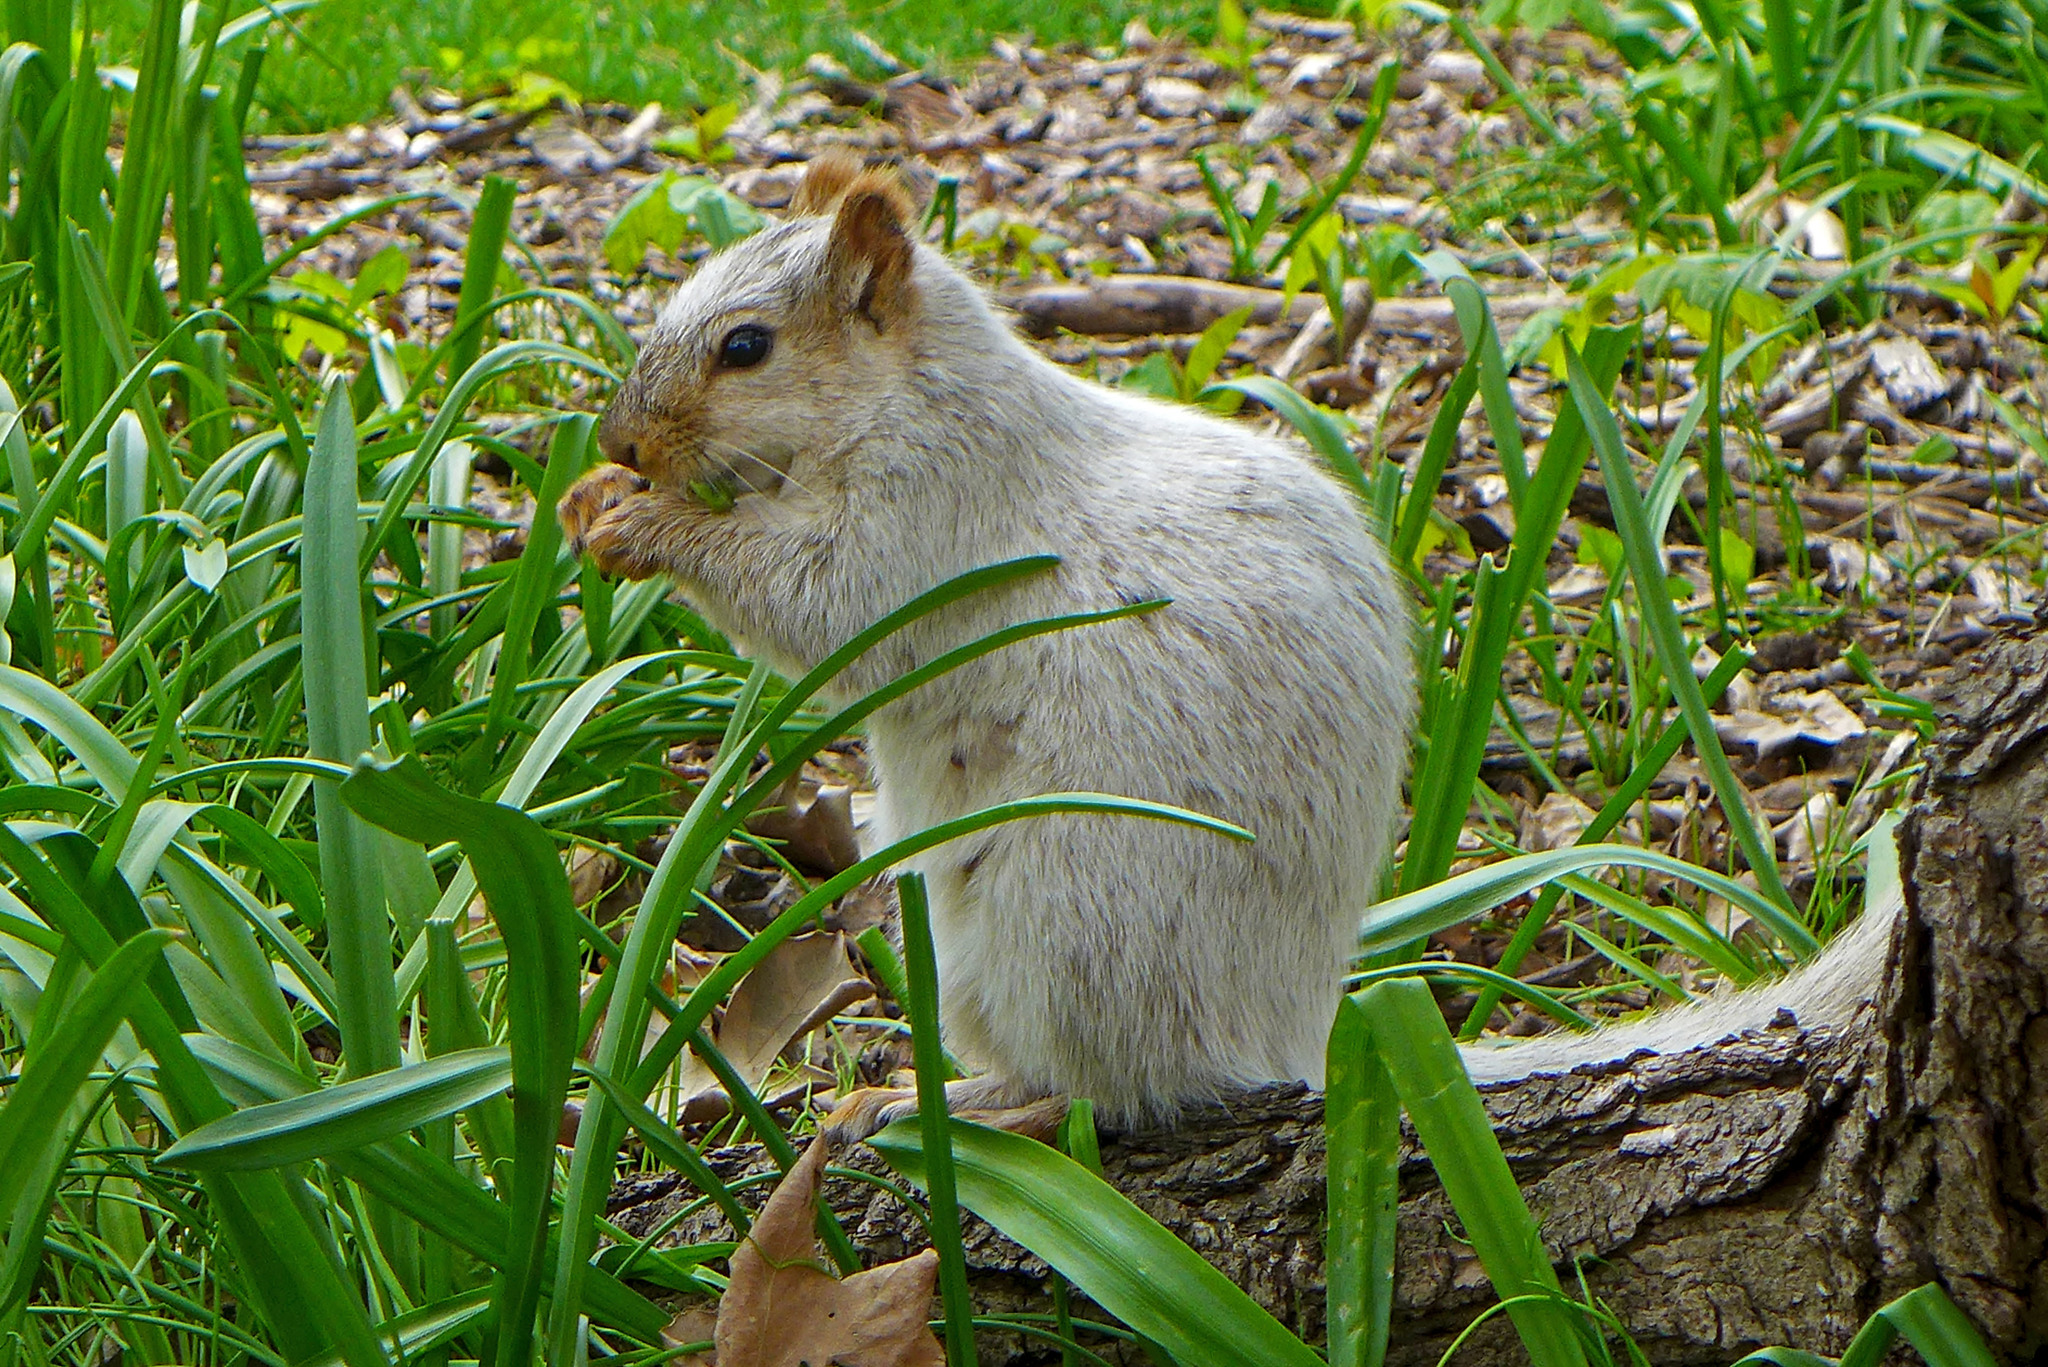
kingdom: Animalia
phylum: Chordata
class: Mammalia
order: Rodentia
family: Sciuridae
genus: Sciurus
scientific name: Sciurus niger
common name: Fox squirrel
